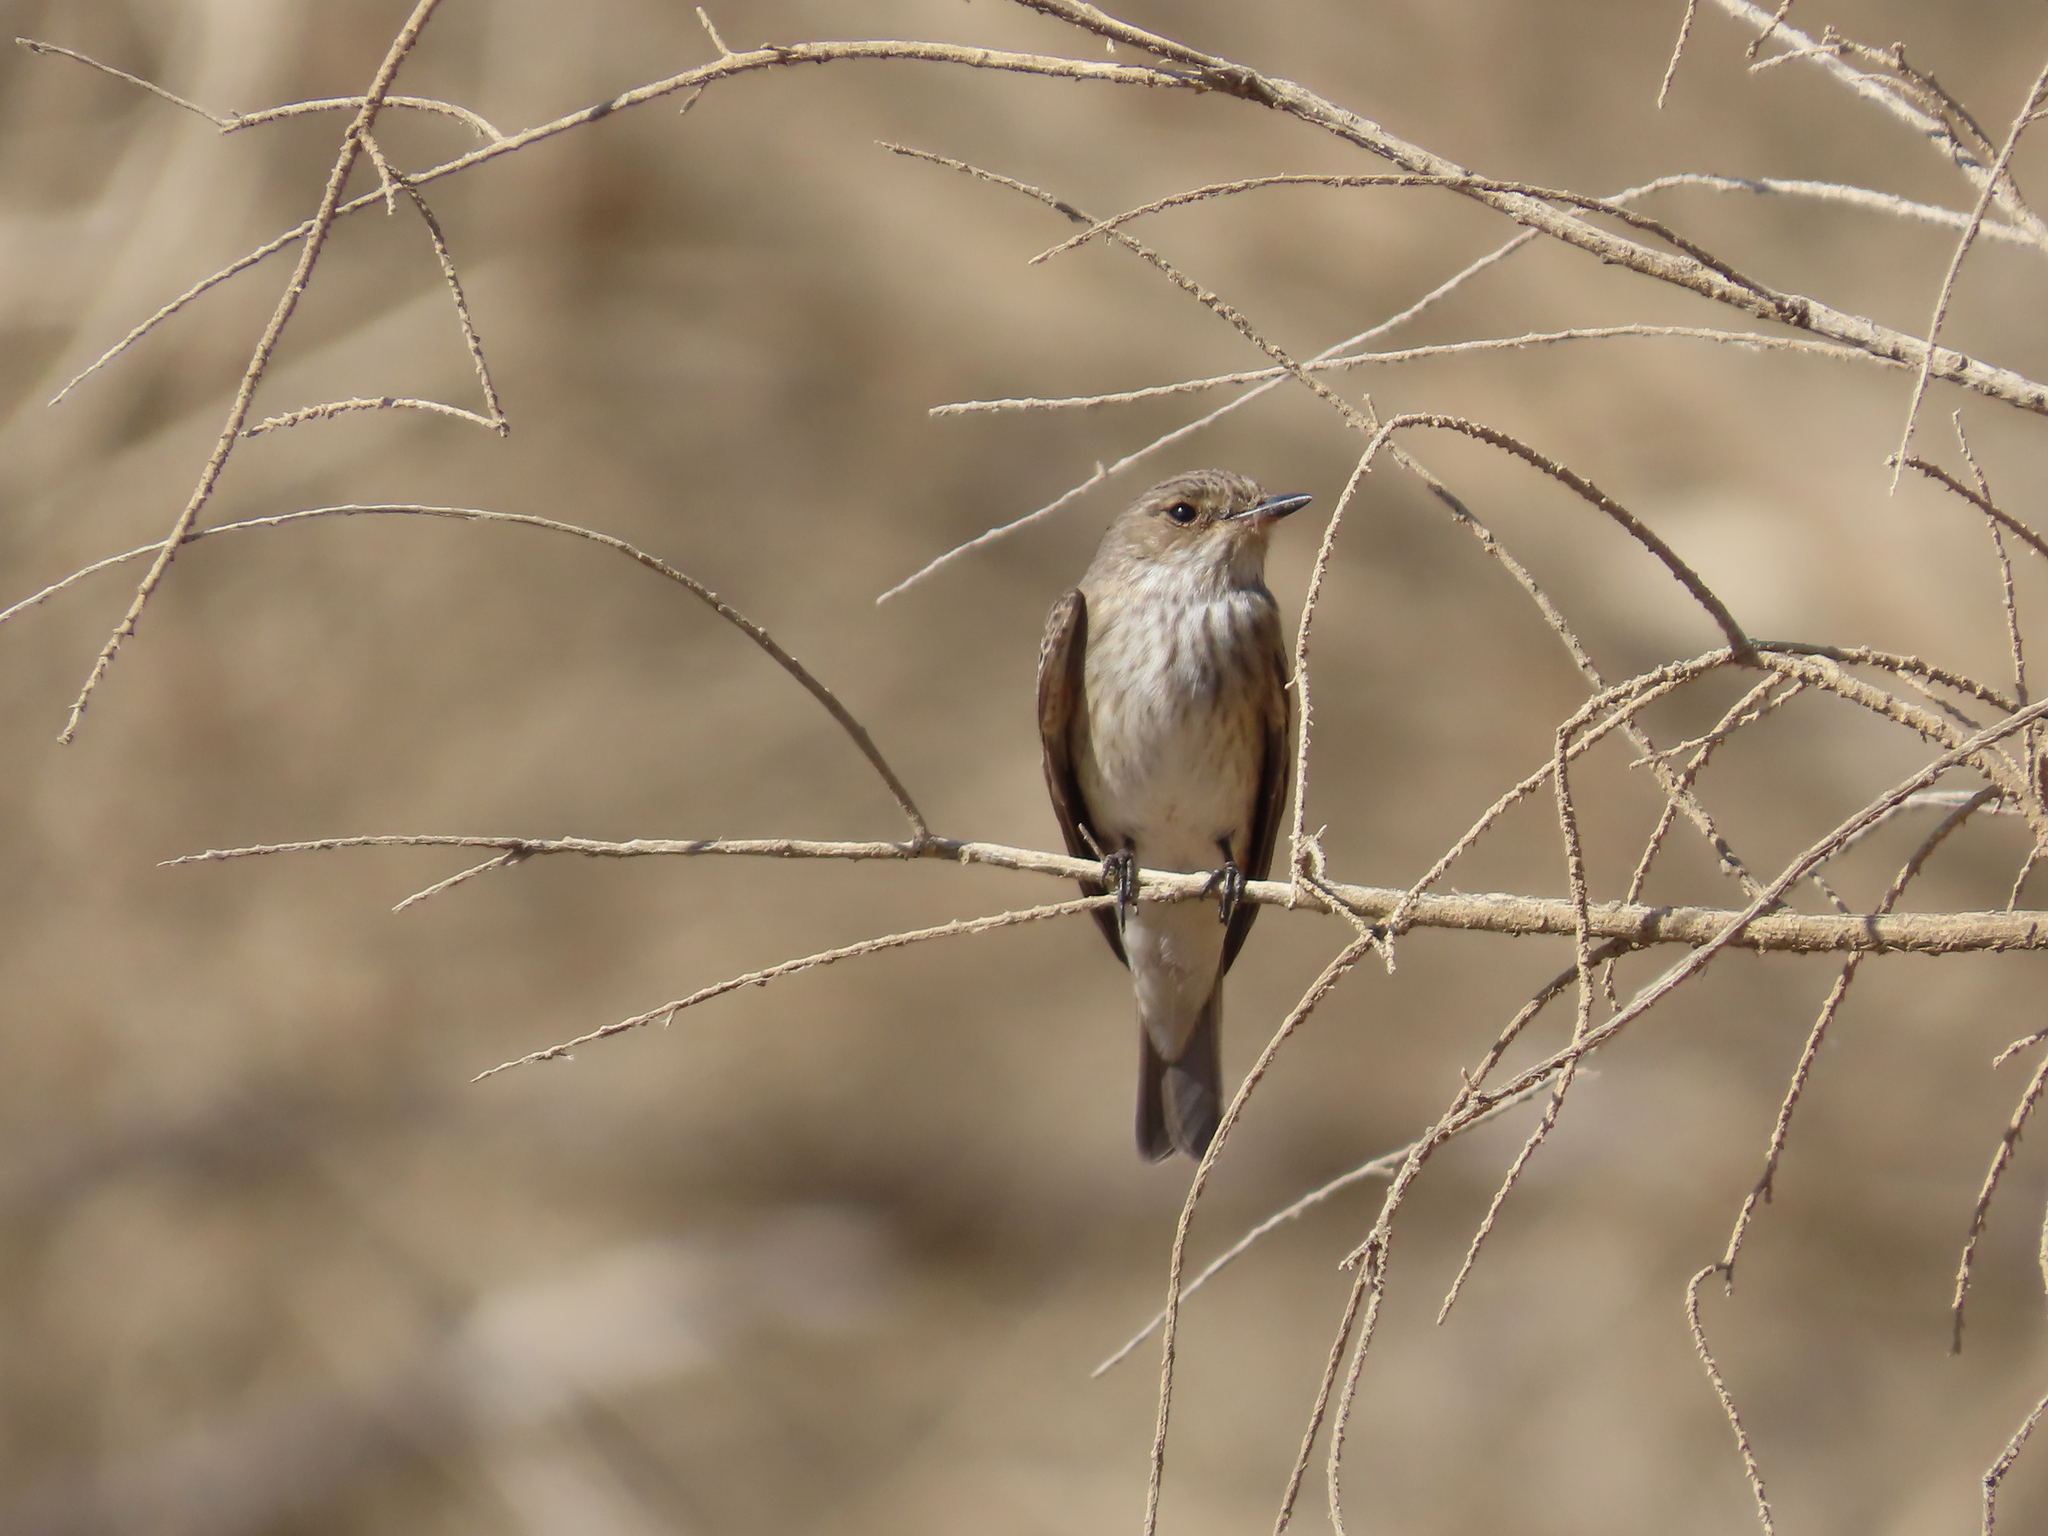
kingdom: Animalia
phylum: Chordata
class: Aves
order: Passeriformes
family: Muscicapidae
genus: Muscicapa
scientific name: Muscicapa striata
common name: Spotted flycatcher
